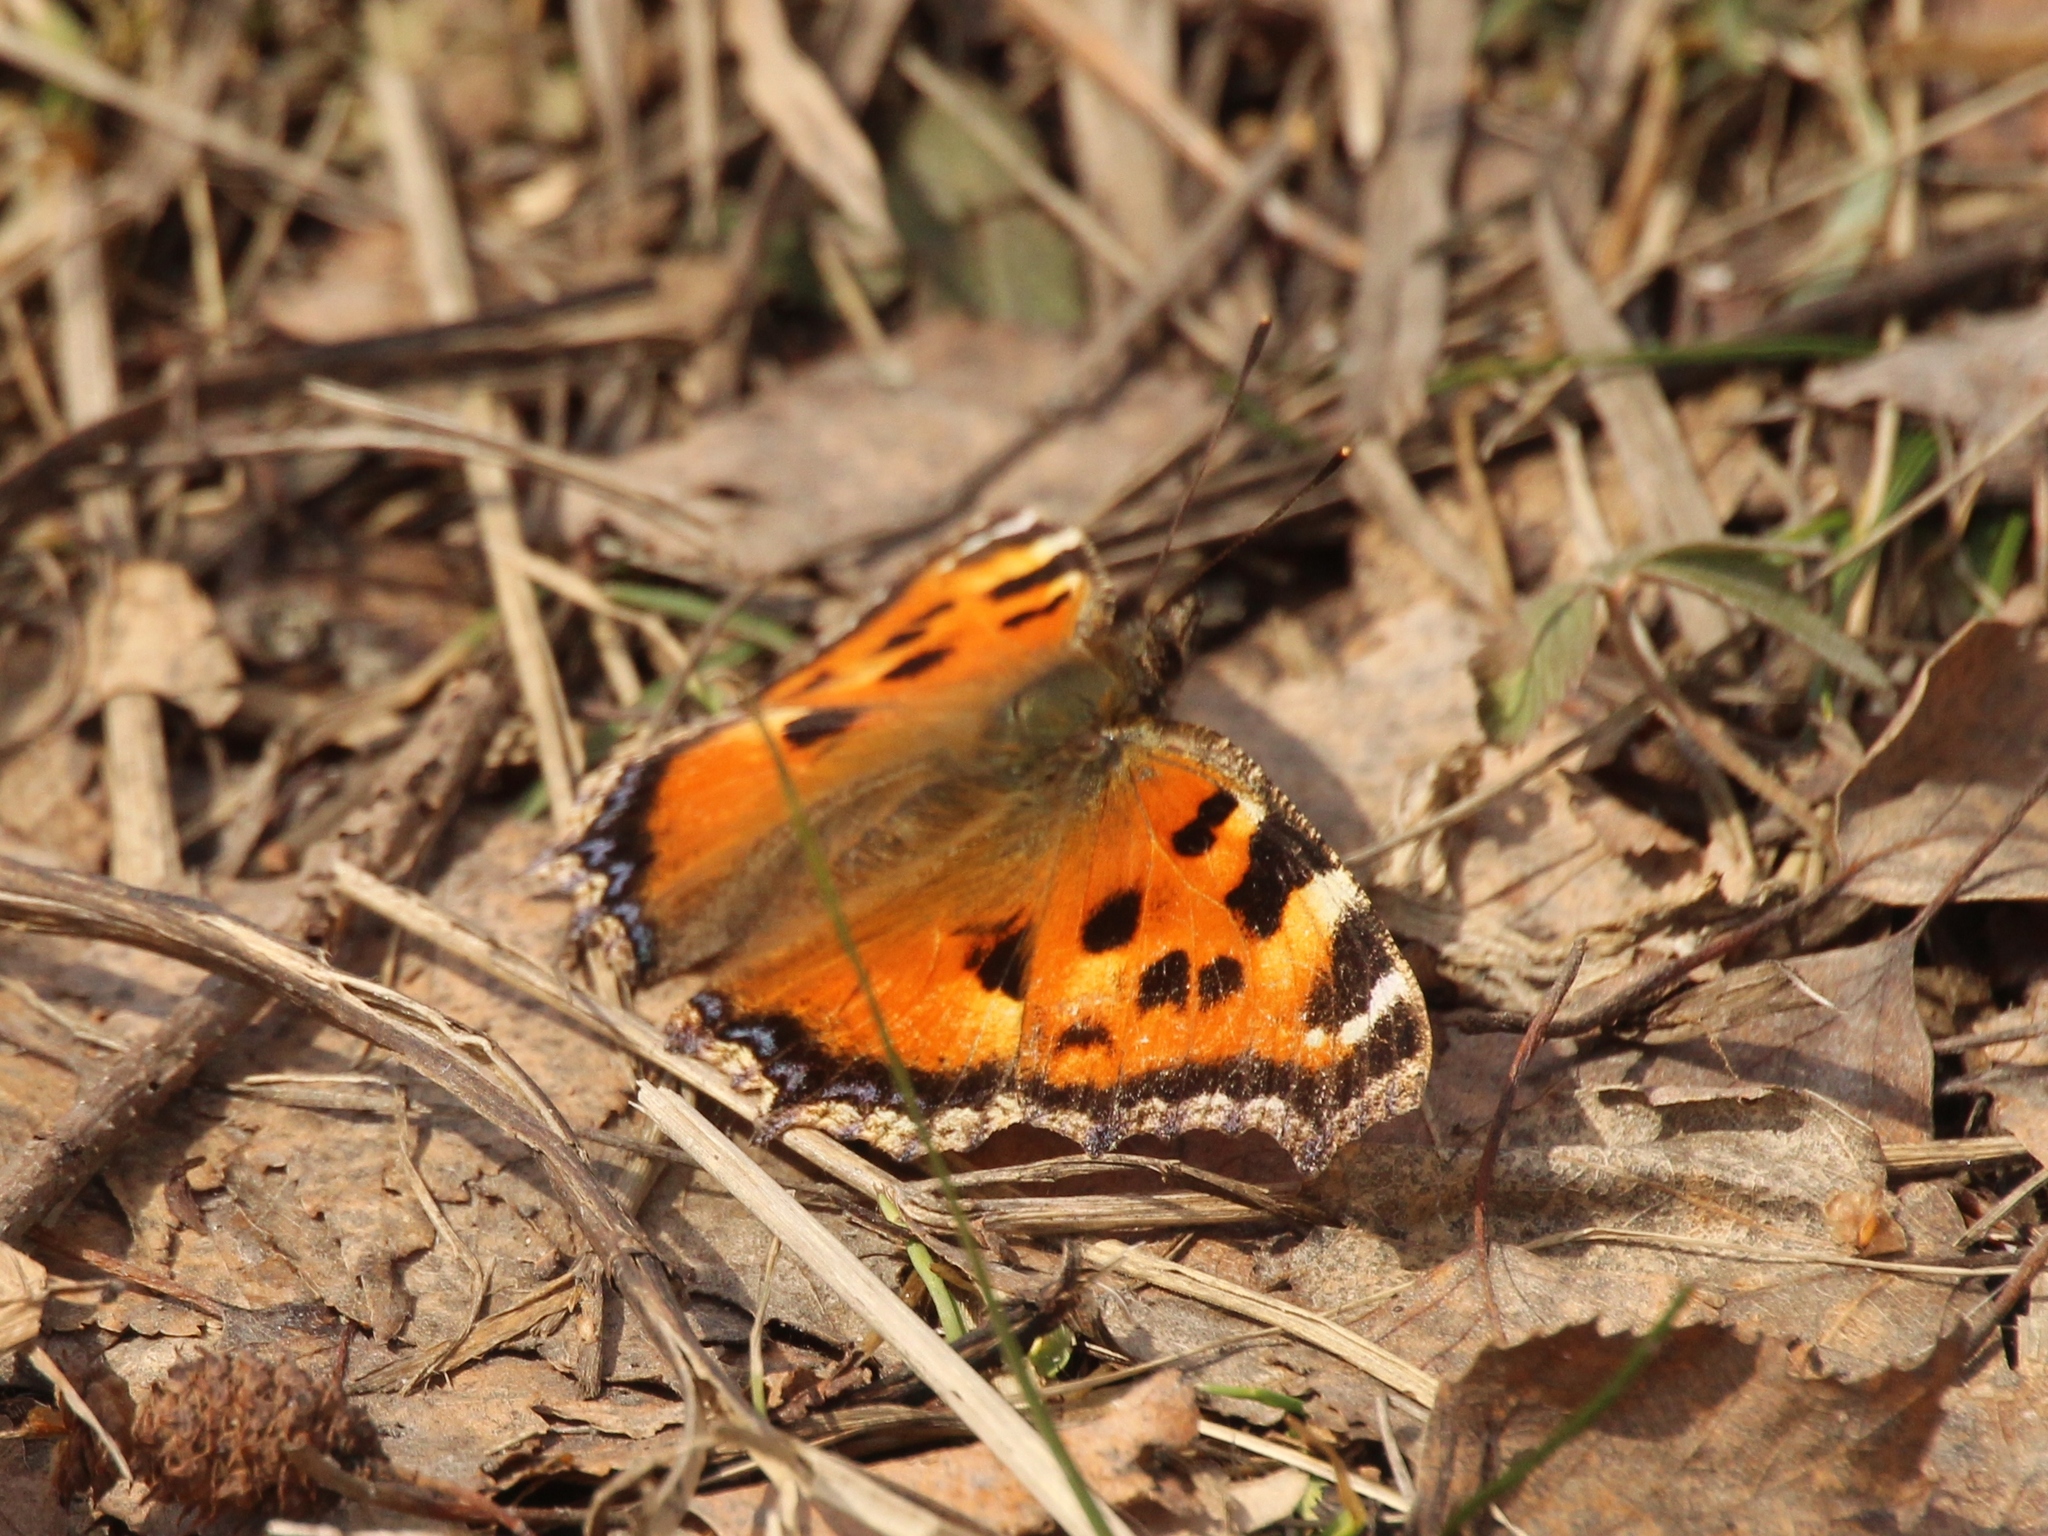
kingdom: Animalia
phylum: Arthropoda
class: Insecta
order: Lepidoptera
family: Nymphalidae
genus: Nymphalis
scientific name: Nymphalis xanthomelas
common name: Scarce tortoiseshell
